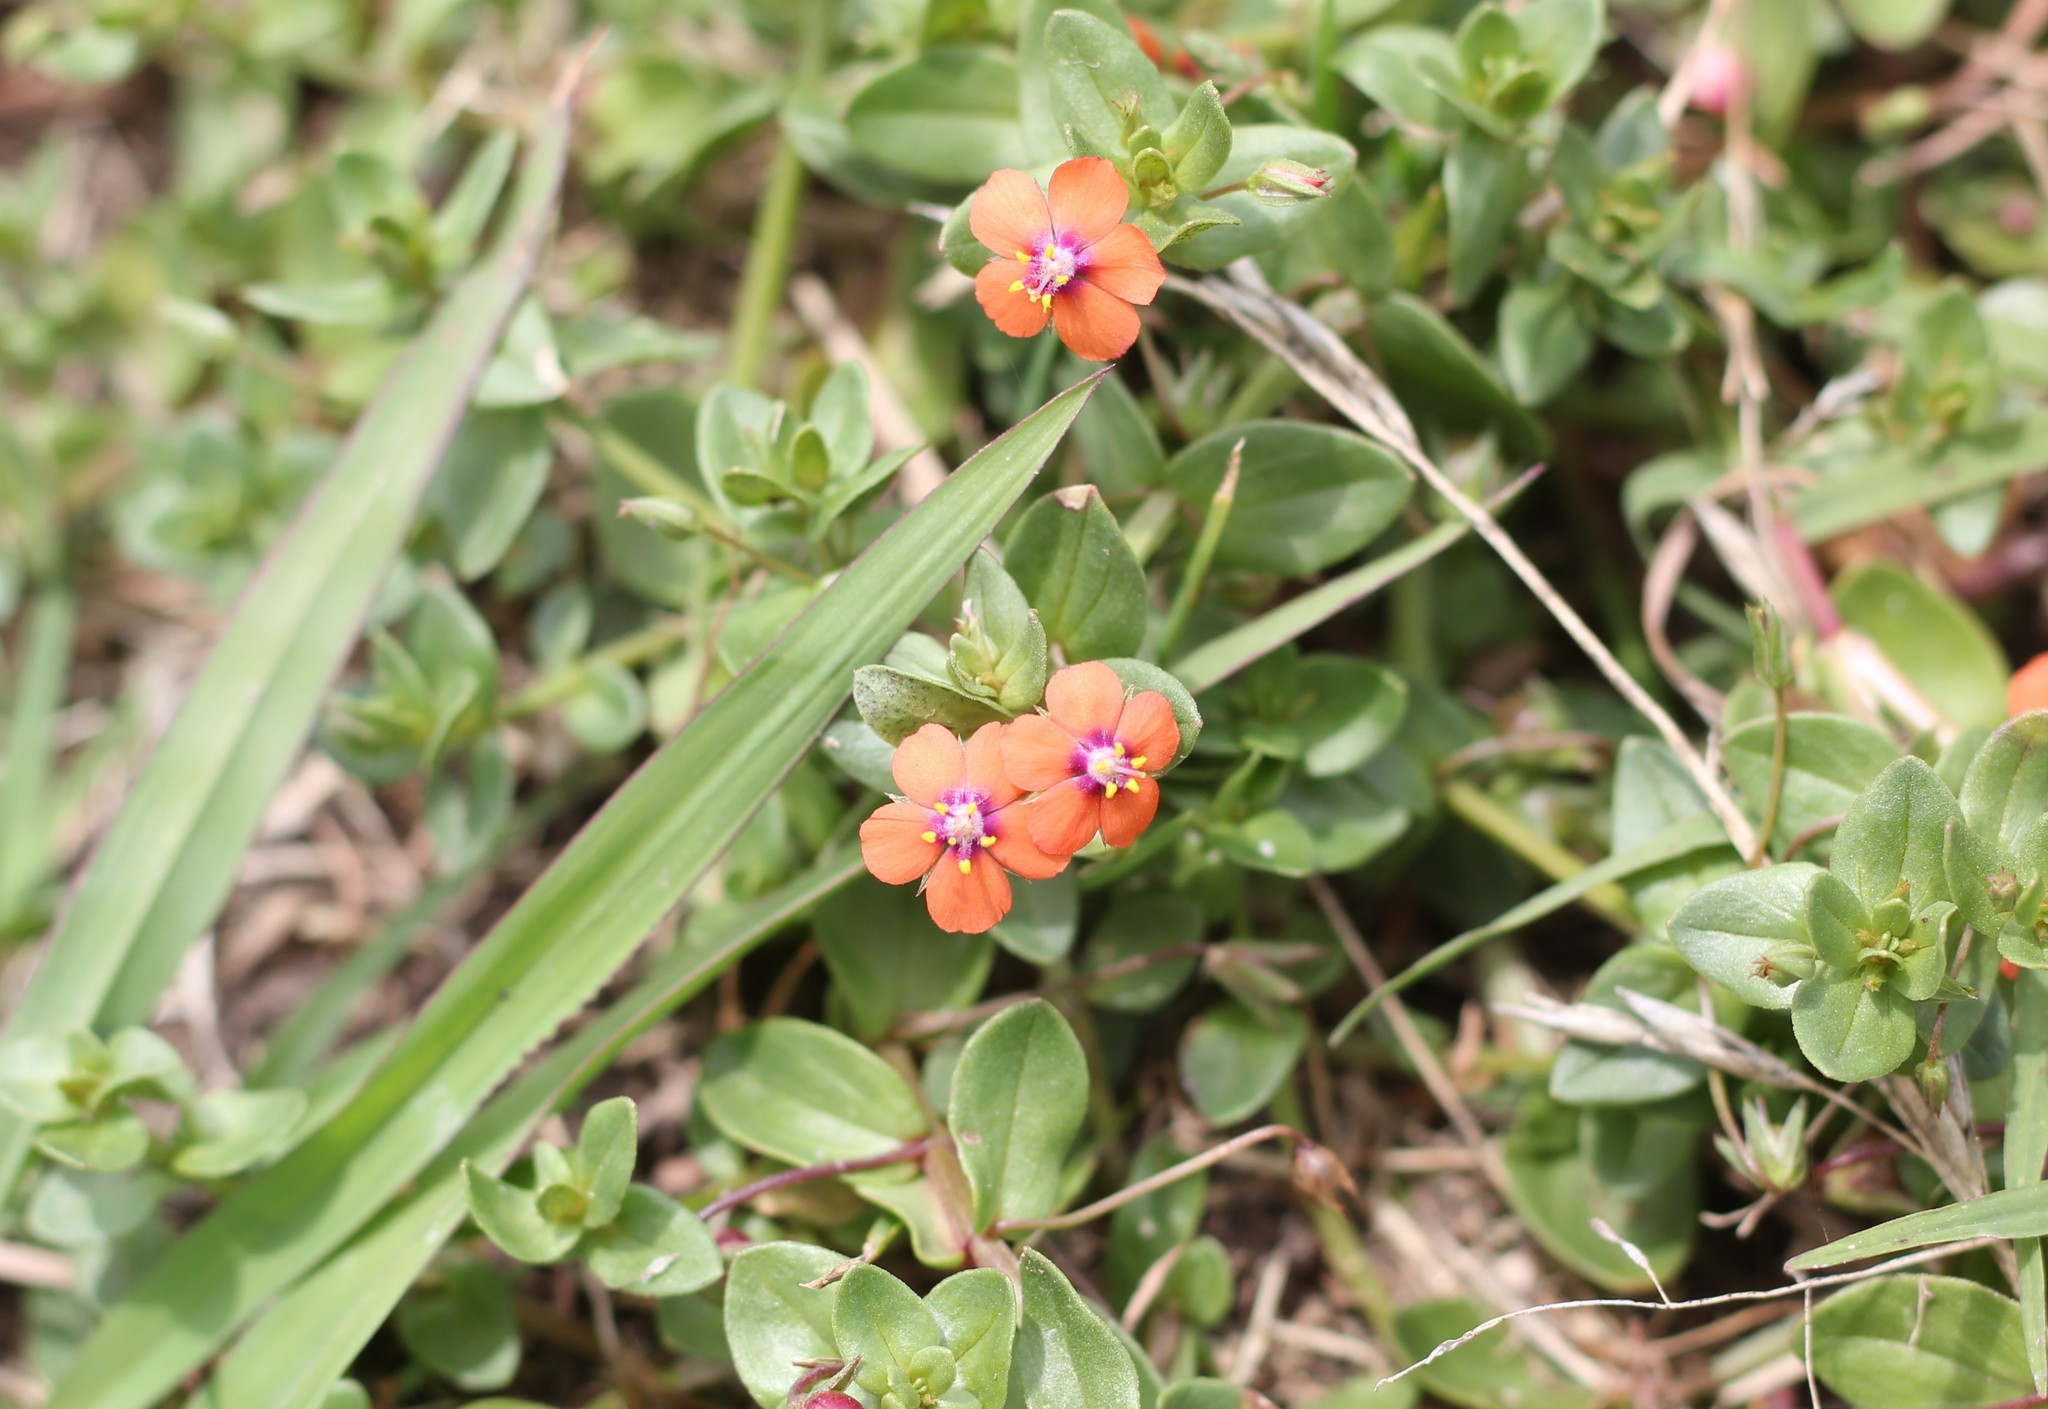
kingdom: Plantae
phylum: Tracheophyta
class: Magnoliopsida
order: Ericales
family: Primulaceae
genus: Lysimachia
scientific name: Lysimachia arvensis
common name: Scarlet pimpernel
